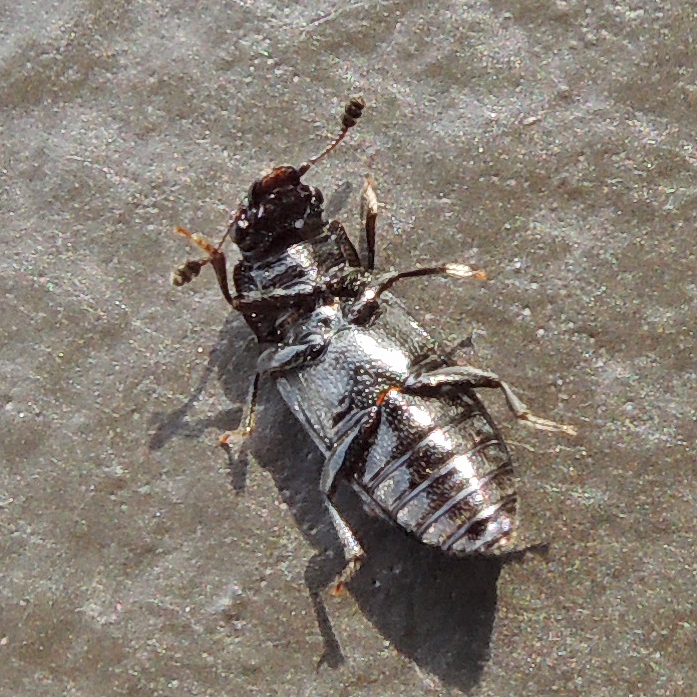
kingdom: Animalia
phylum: Arthropoda
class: Insecta
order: Coleoptera
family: Nitidulidae
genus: Glischrochilus
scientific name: Glischrochilus confluentus
